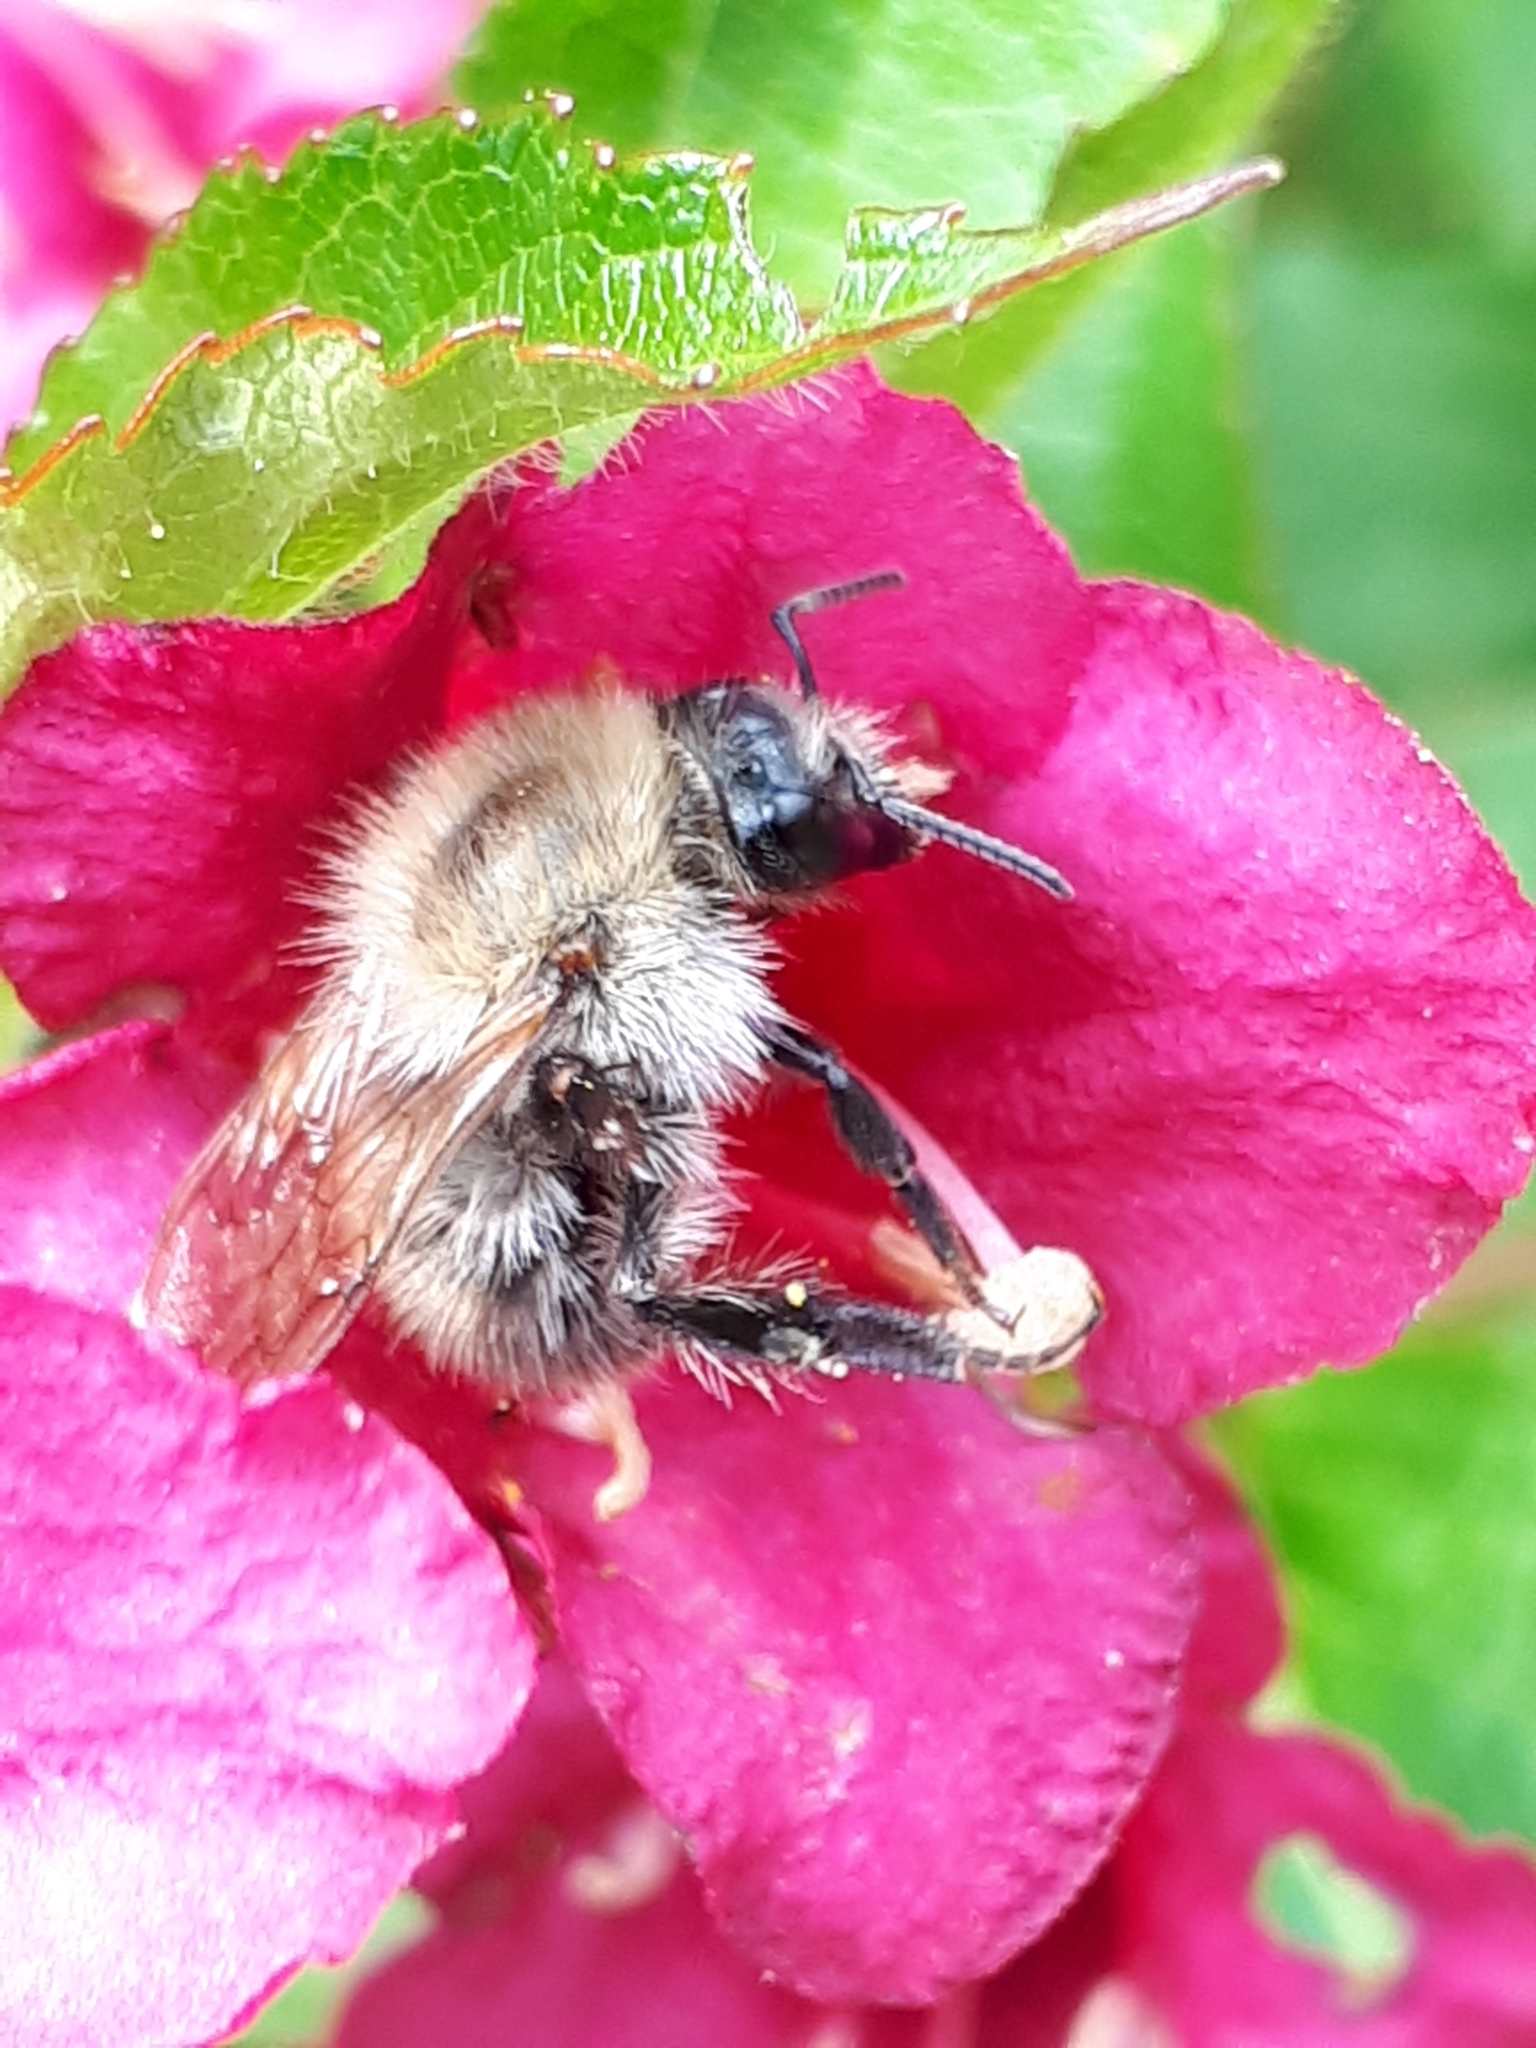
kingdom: Animalia
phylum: Arthropoda
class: Insecta
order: Hymenoptera
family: Apidae
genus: Bombus
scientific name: Bombus pascuorum
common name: Common carder bee
